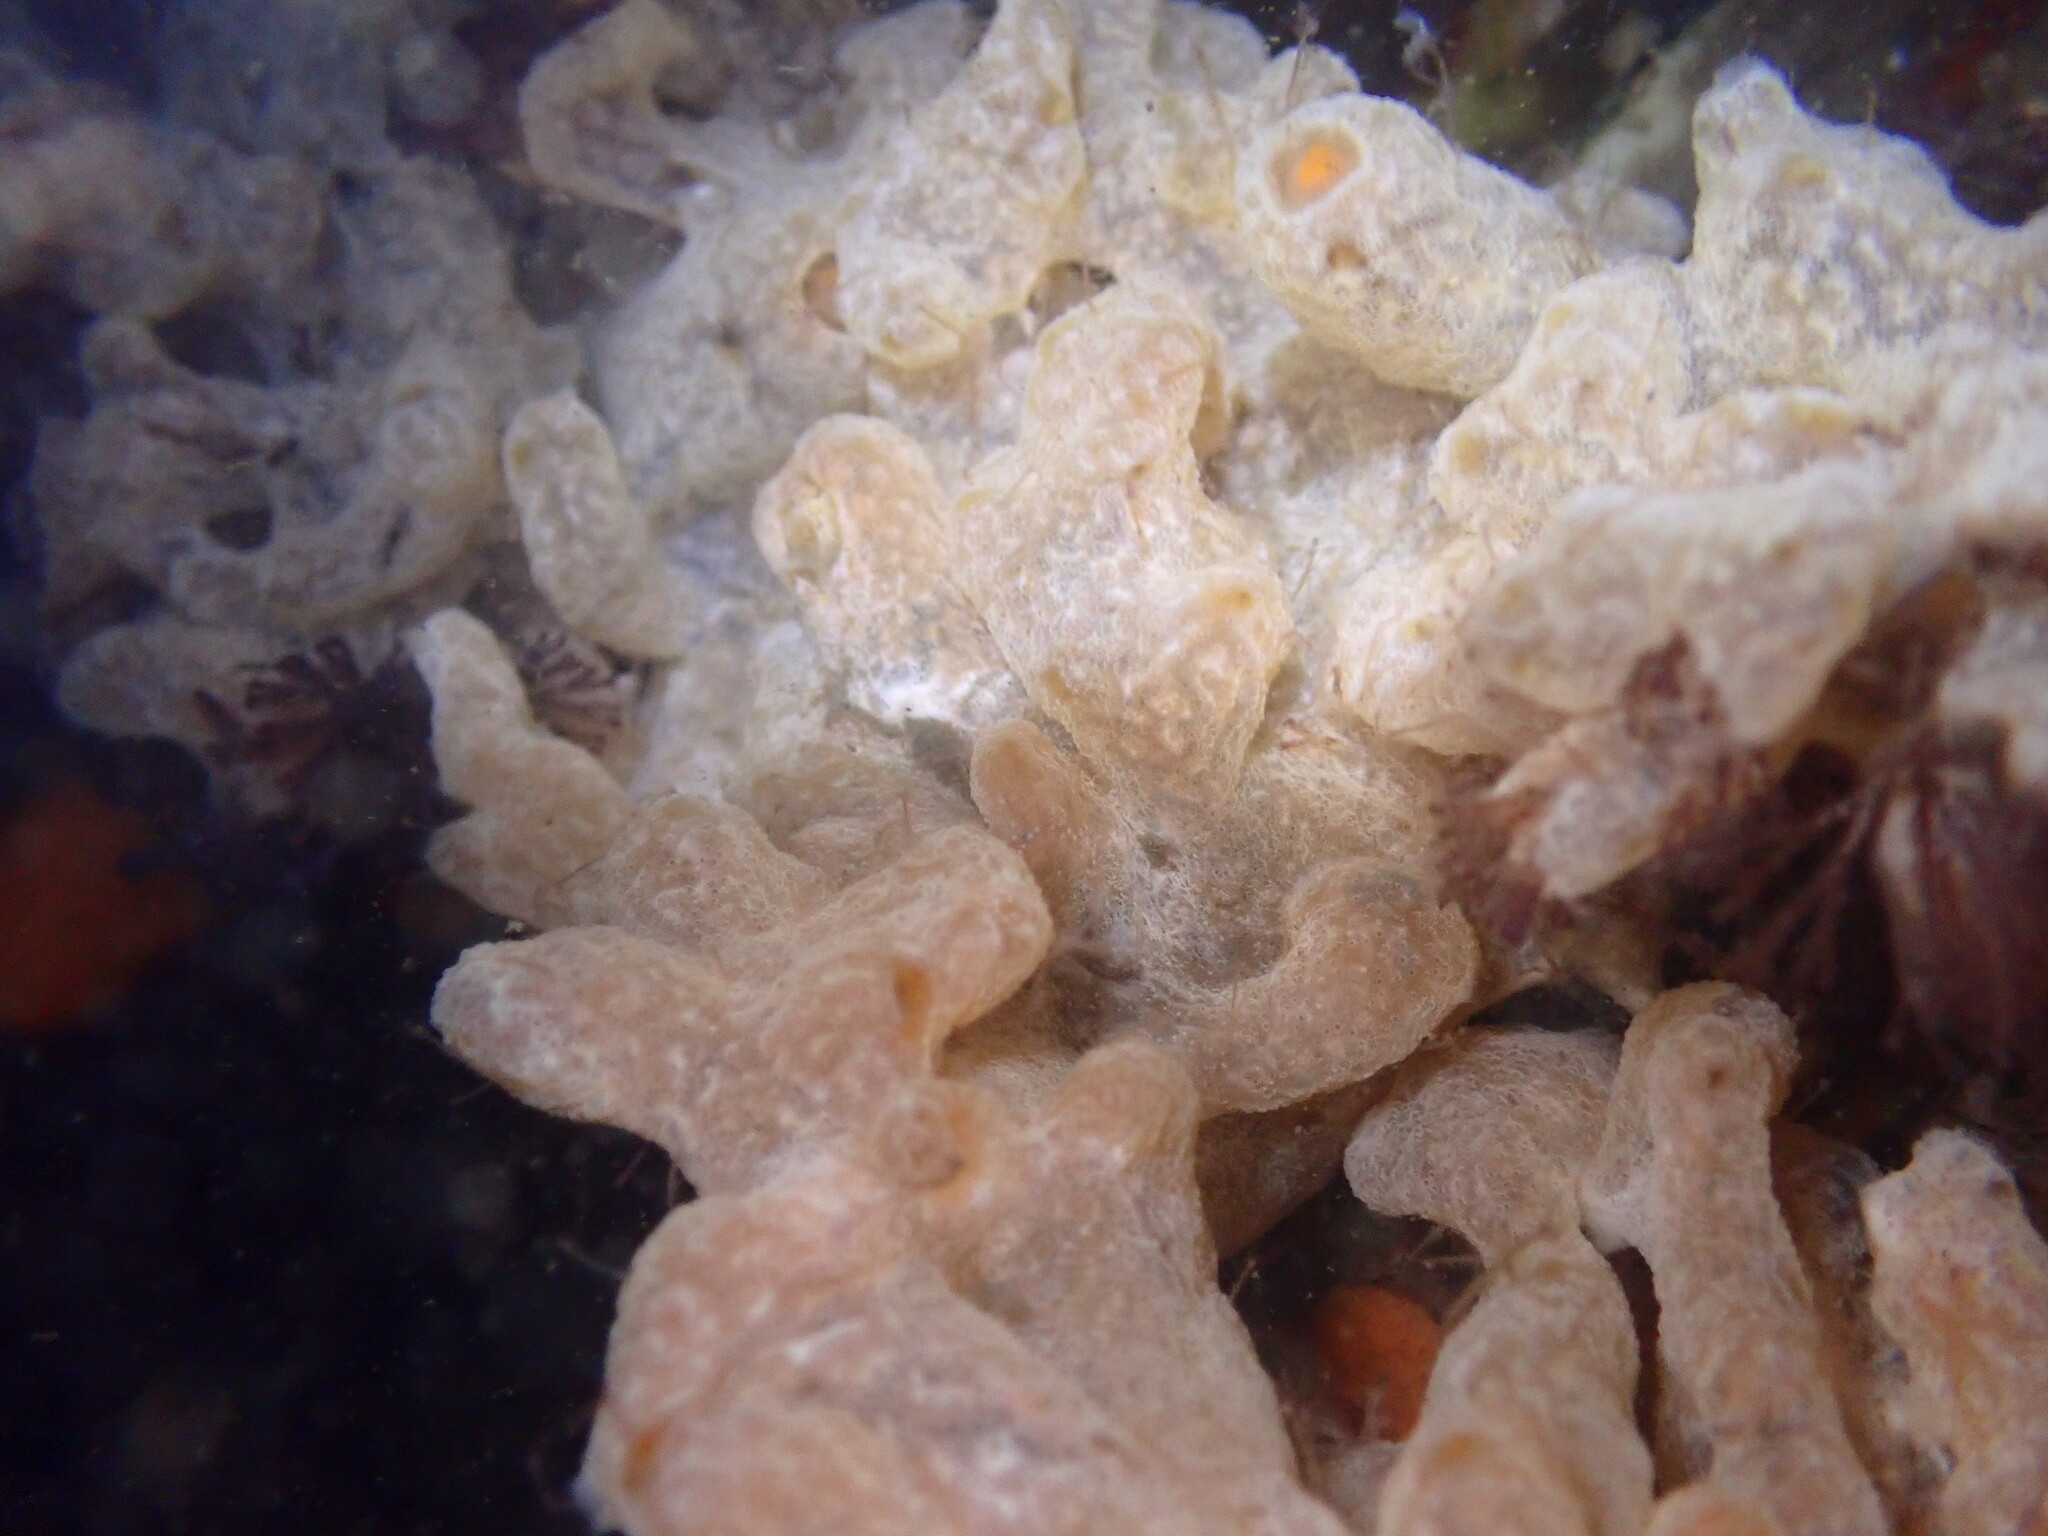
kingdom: Animalia
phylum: Chordata
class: Ascidiacea
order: Aplousobranchia
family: Didemnidae
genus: Didemnum
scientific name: Didemnum vexillum
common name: Compound sea squirt
